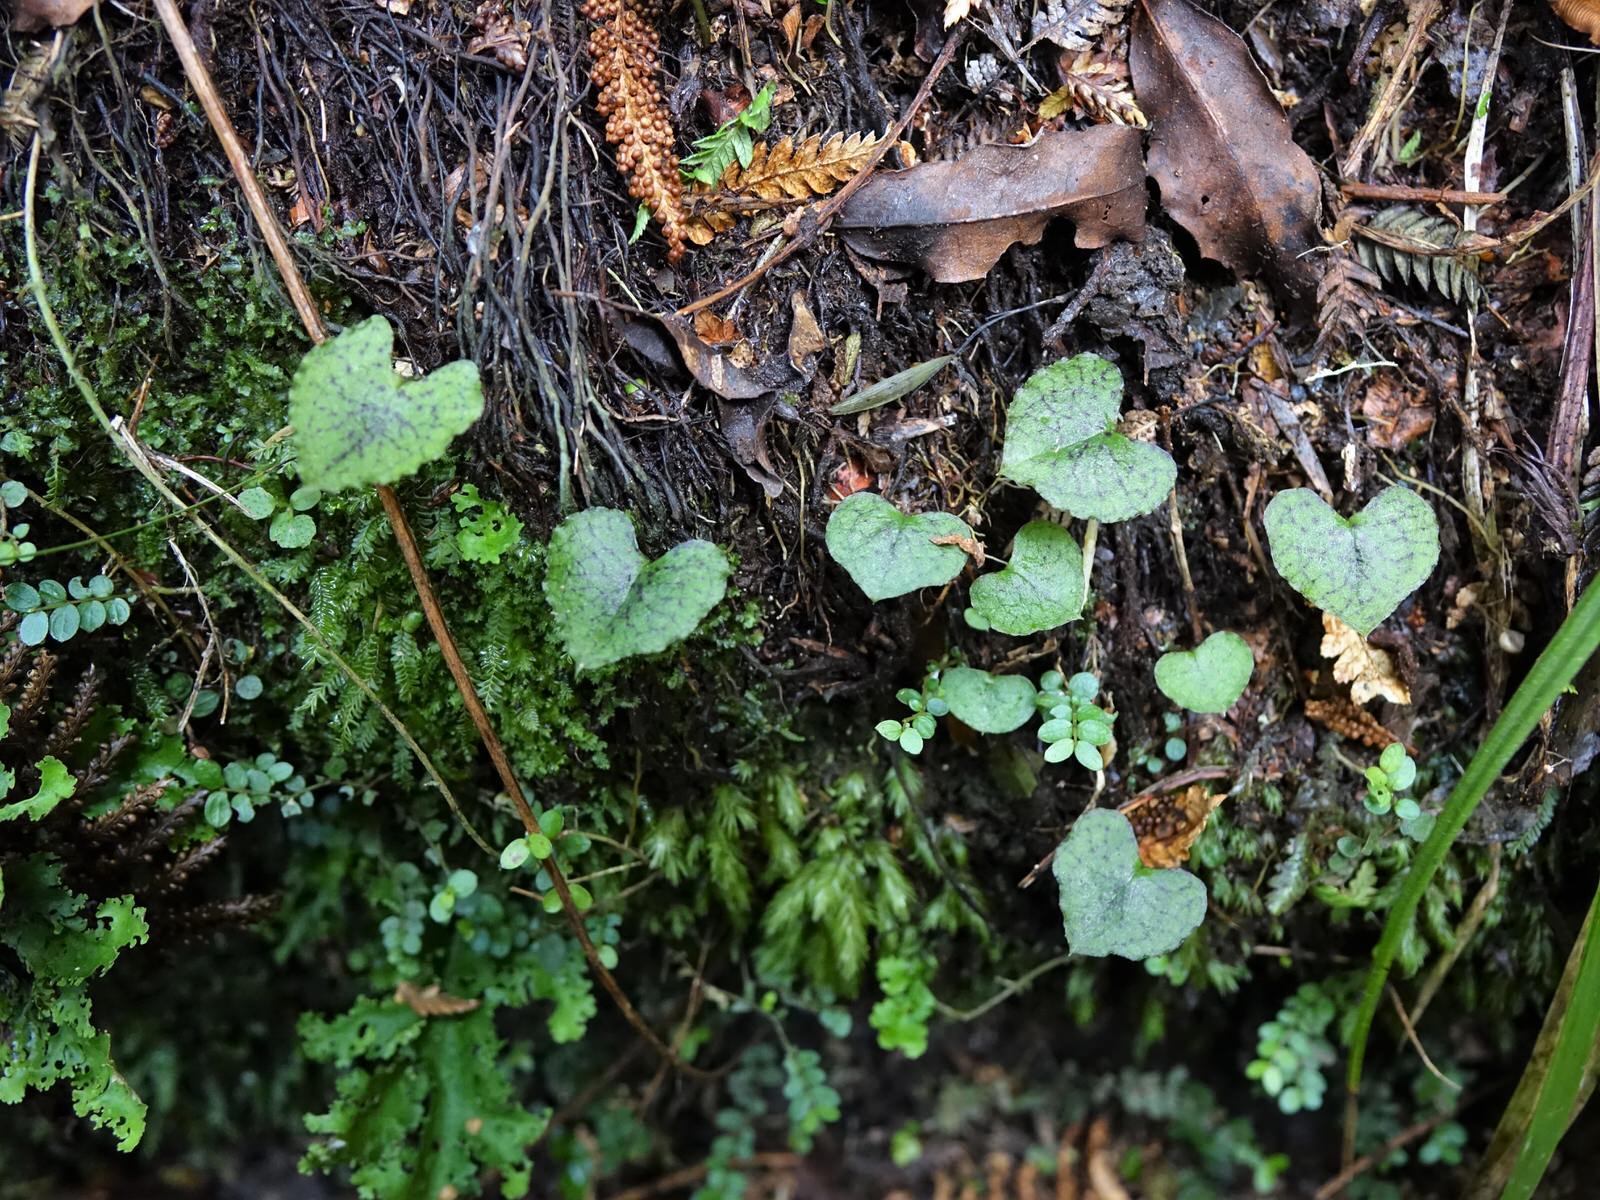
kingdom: Plantae
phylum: Tracheophyta
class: Liliopsida
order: Asparagales
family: Orchidaceae
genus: Corybas
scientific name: Corybas acuminatus
